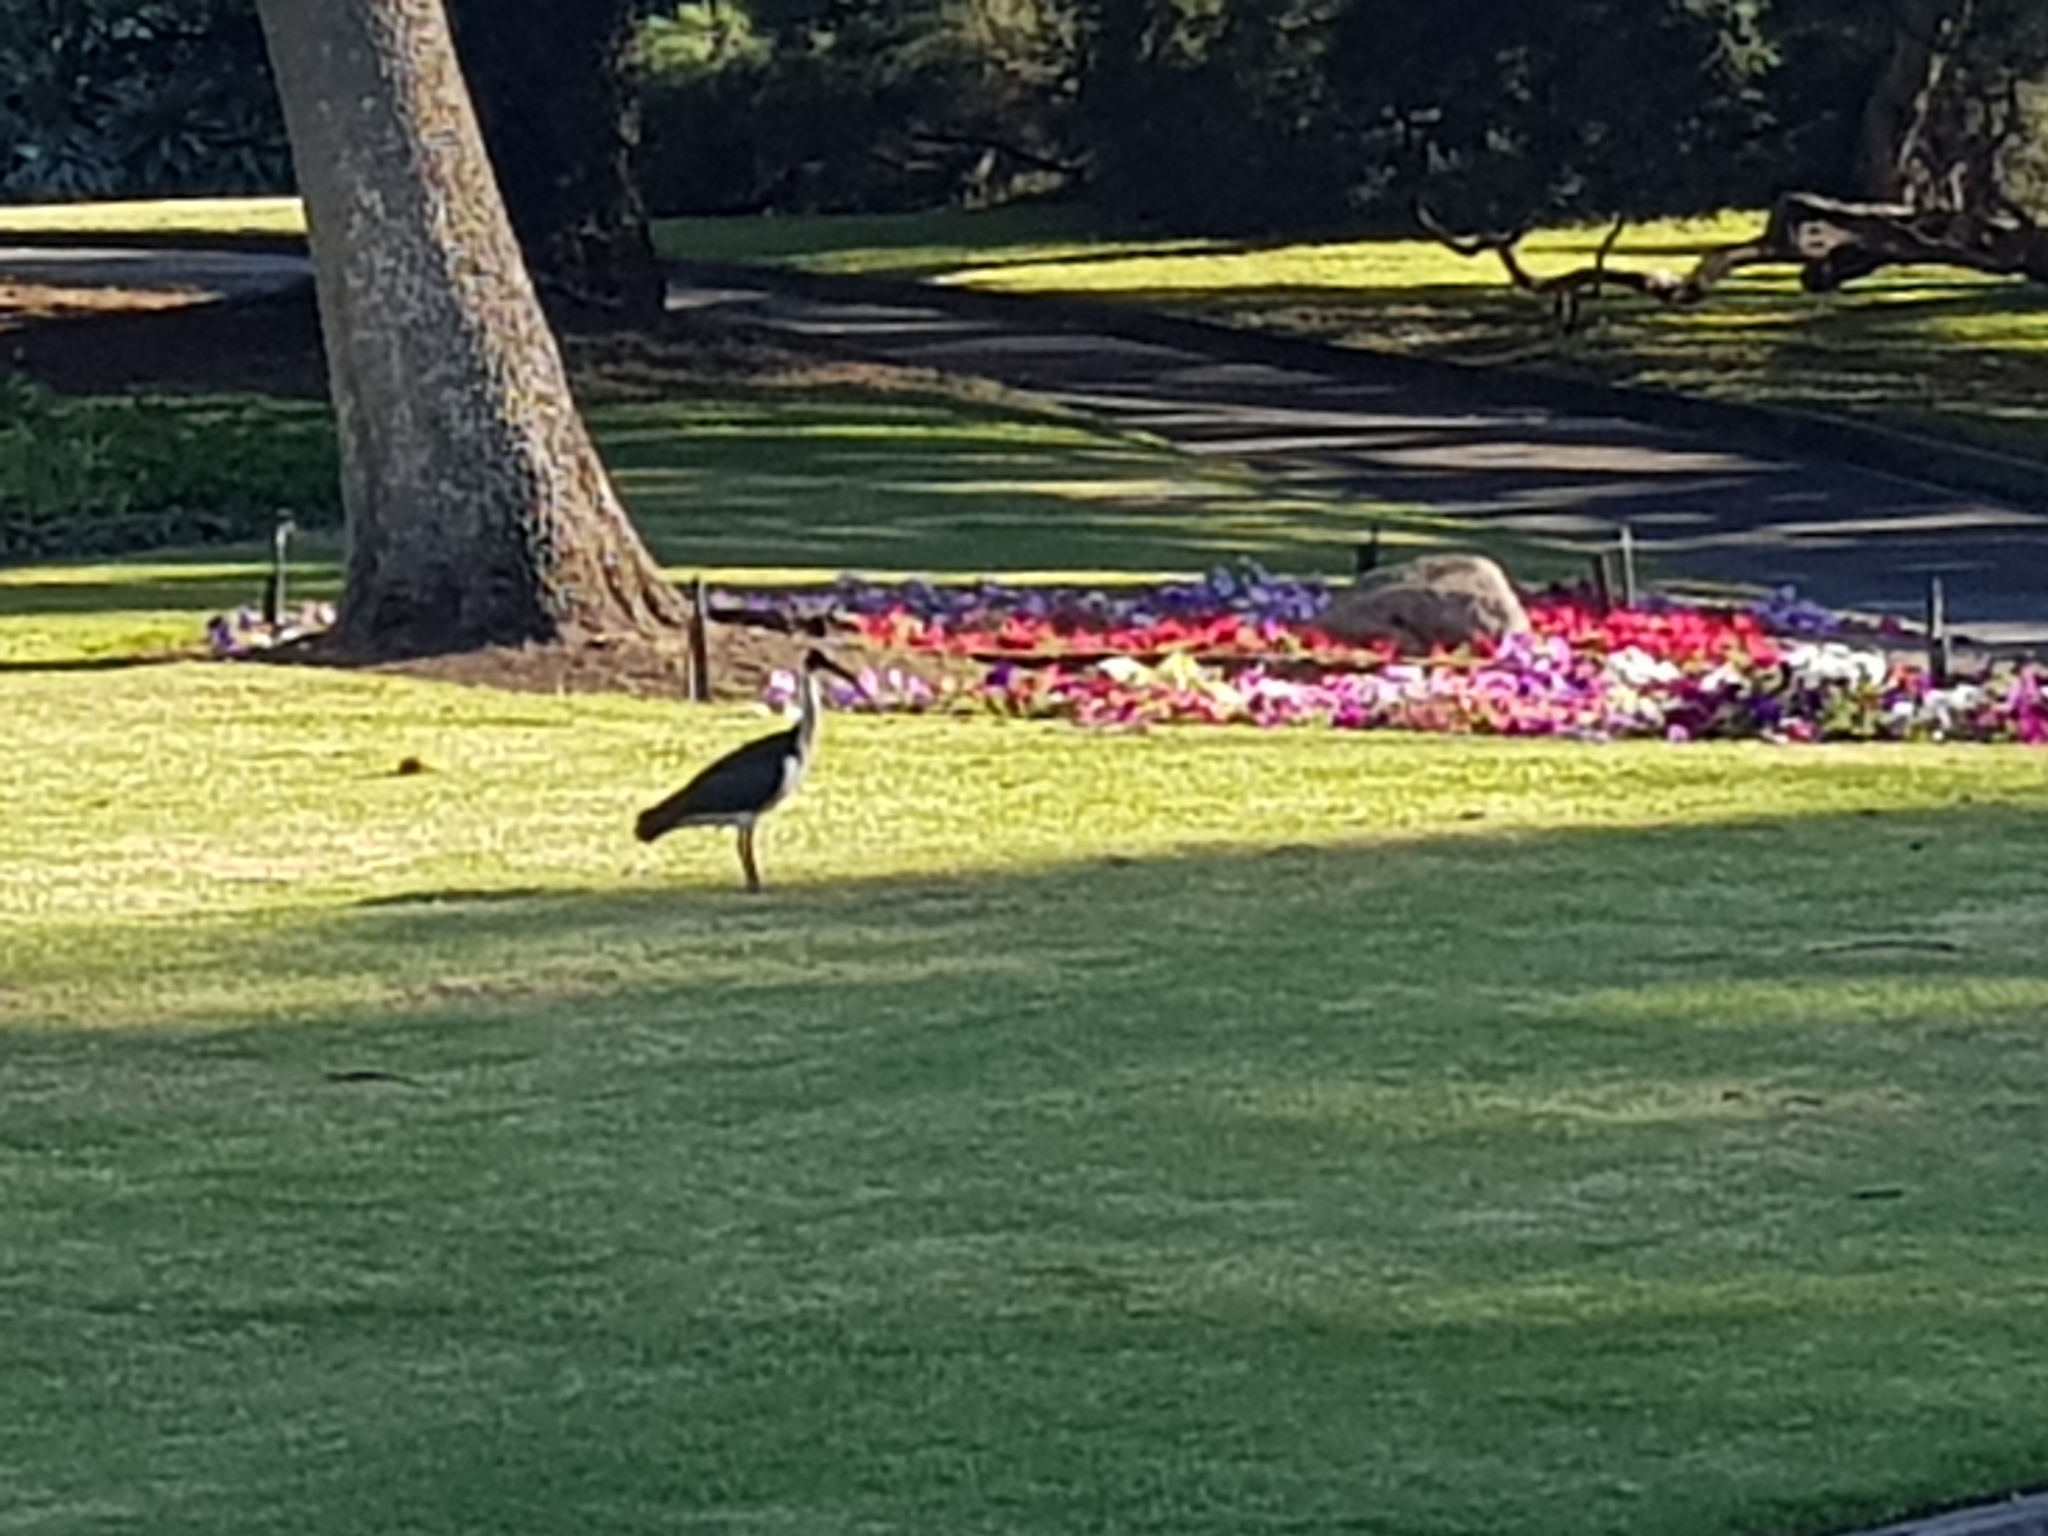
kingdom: Animalia
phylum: Chordata
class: Aves
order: Pelecaniformes
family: Threskiornithidae
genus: Threskiornis
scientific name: Threskiornis spinicollis
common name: Straw-necked ibis
